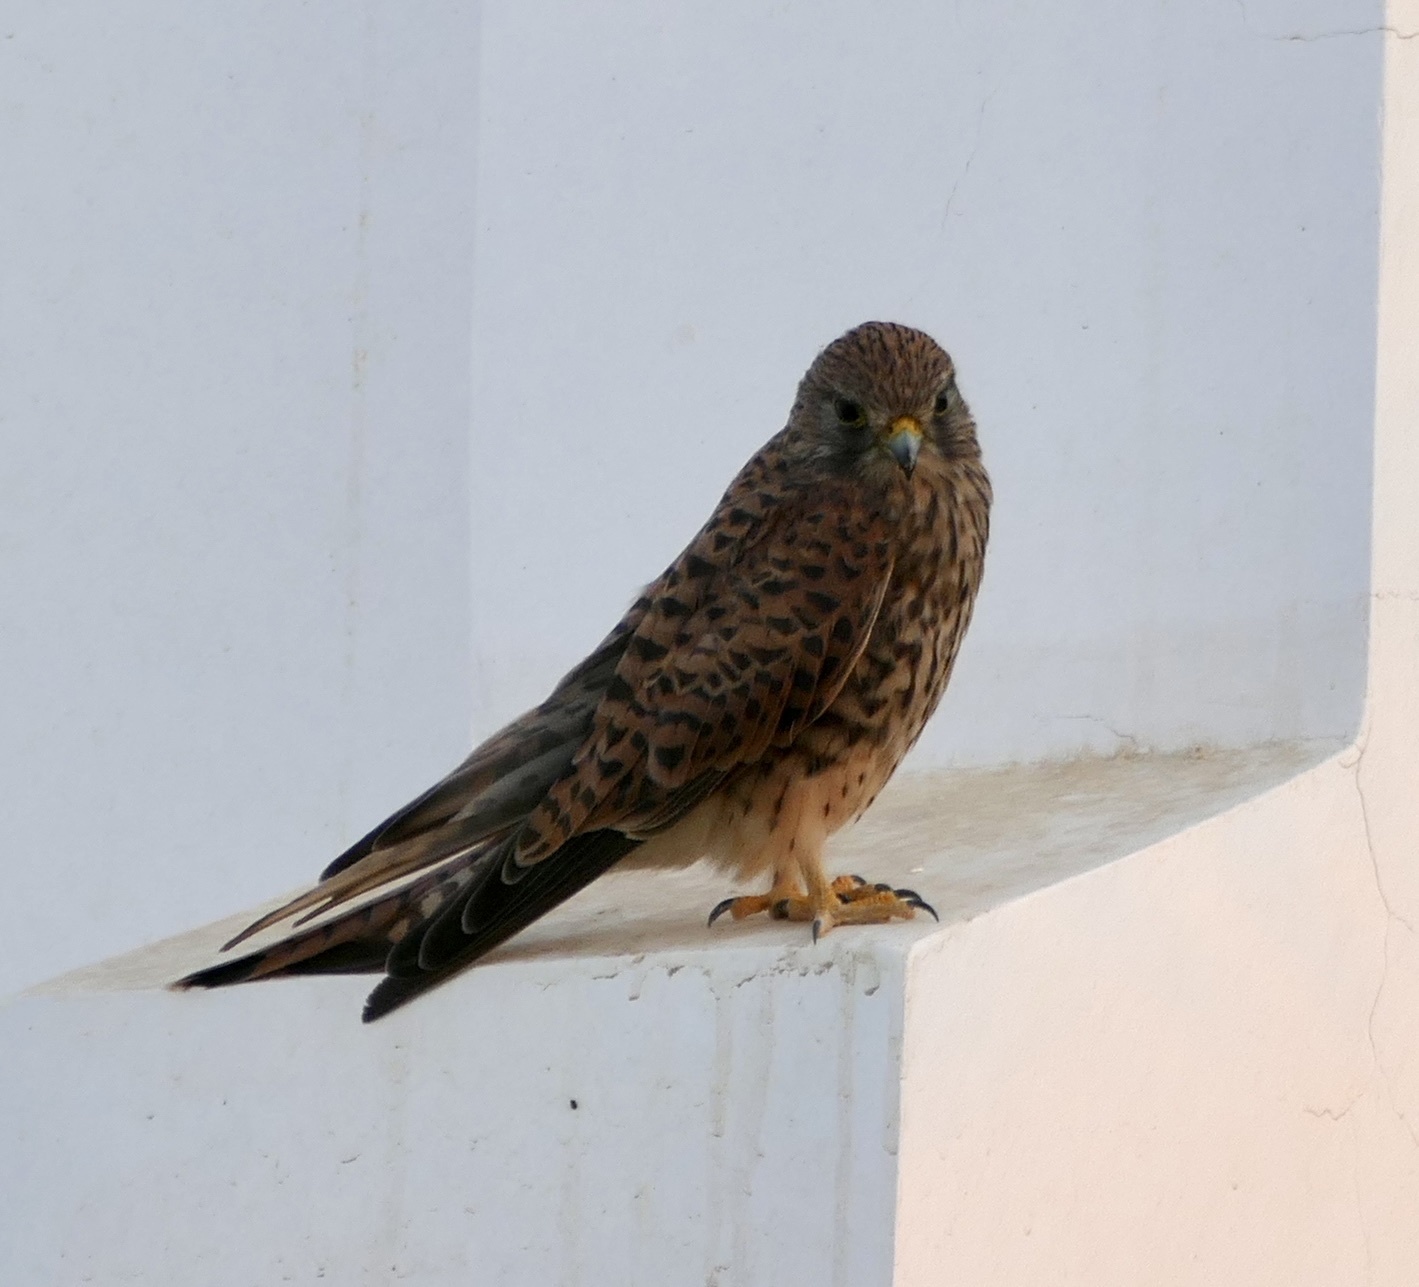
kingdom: Animalia
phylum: Chordata
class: Aves
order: Falconiformes
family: Falconidae
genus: Falco
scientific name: Falco tinnunculus
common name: Common kestrel
